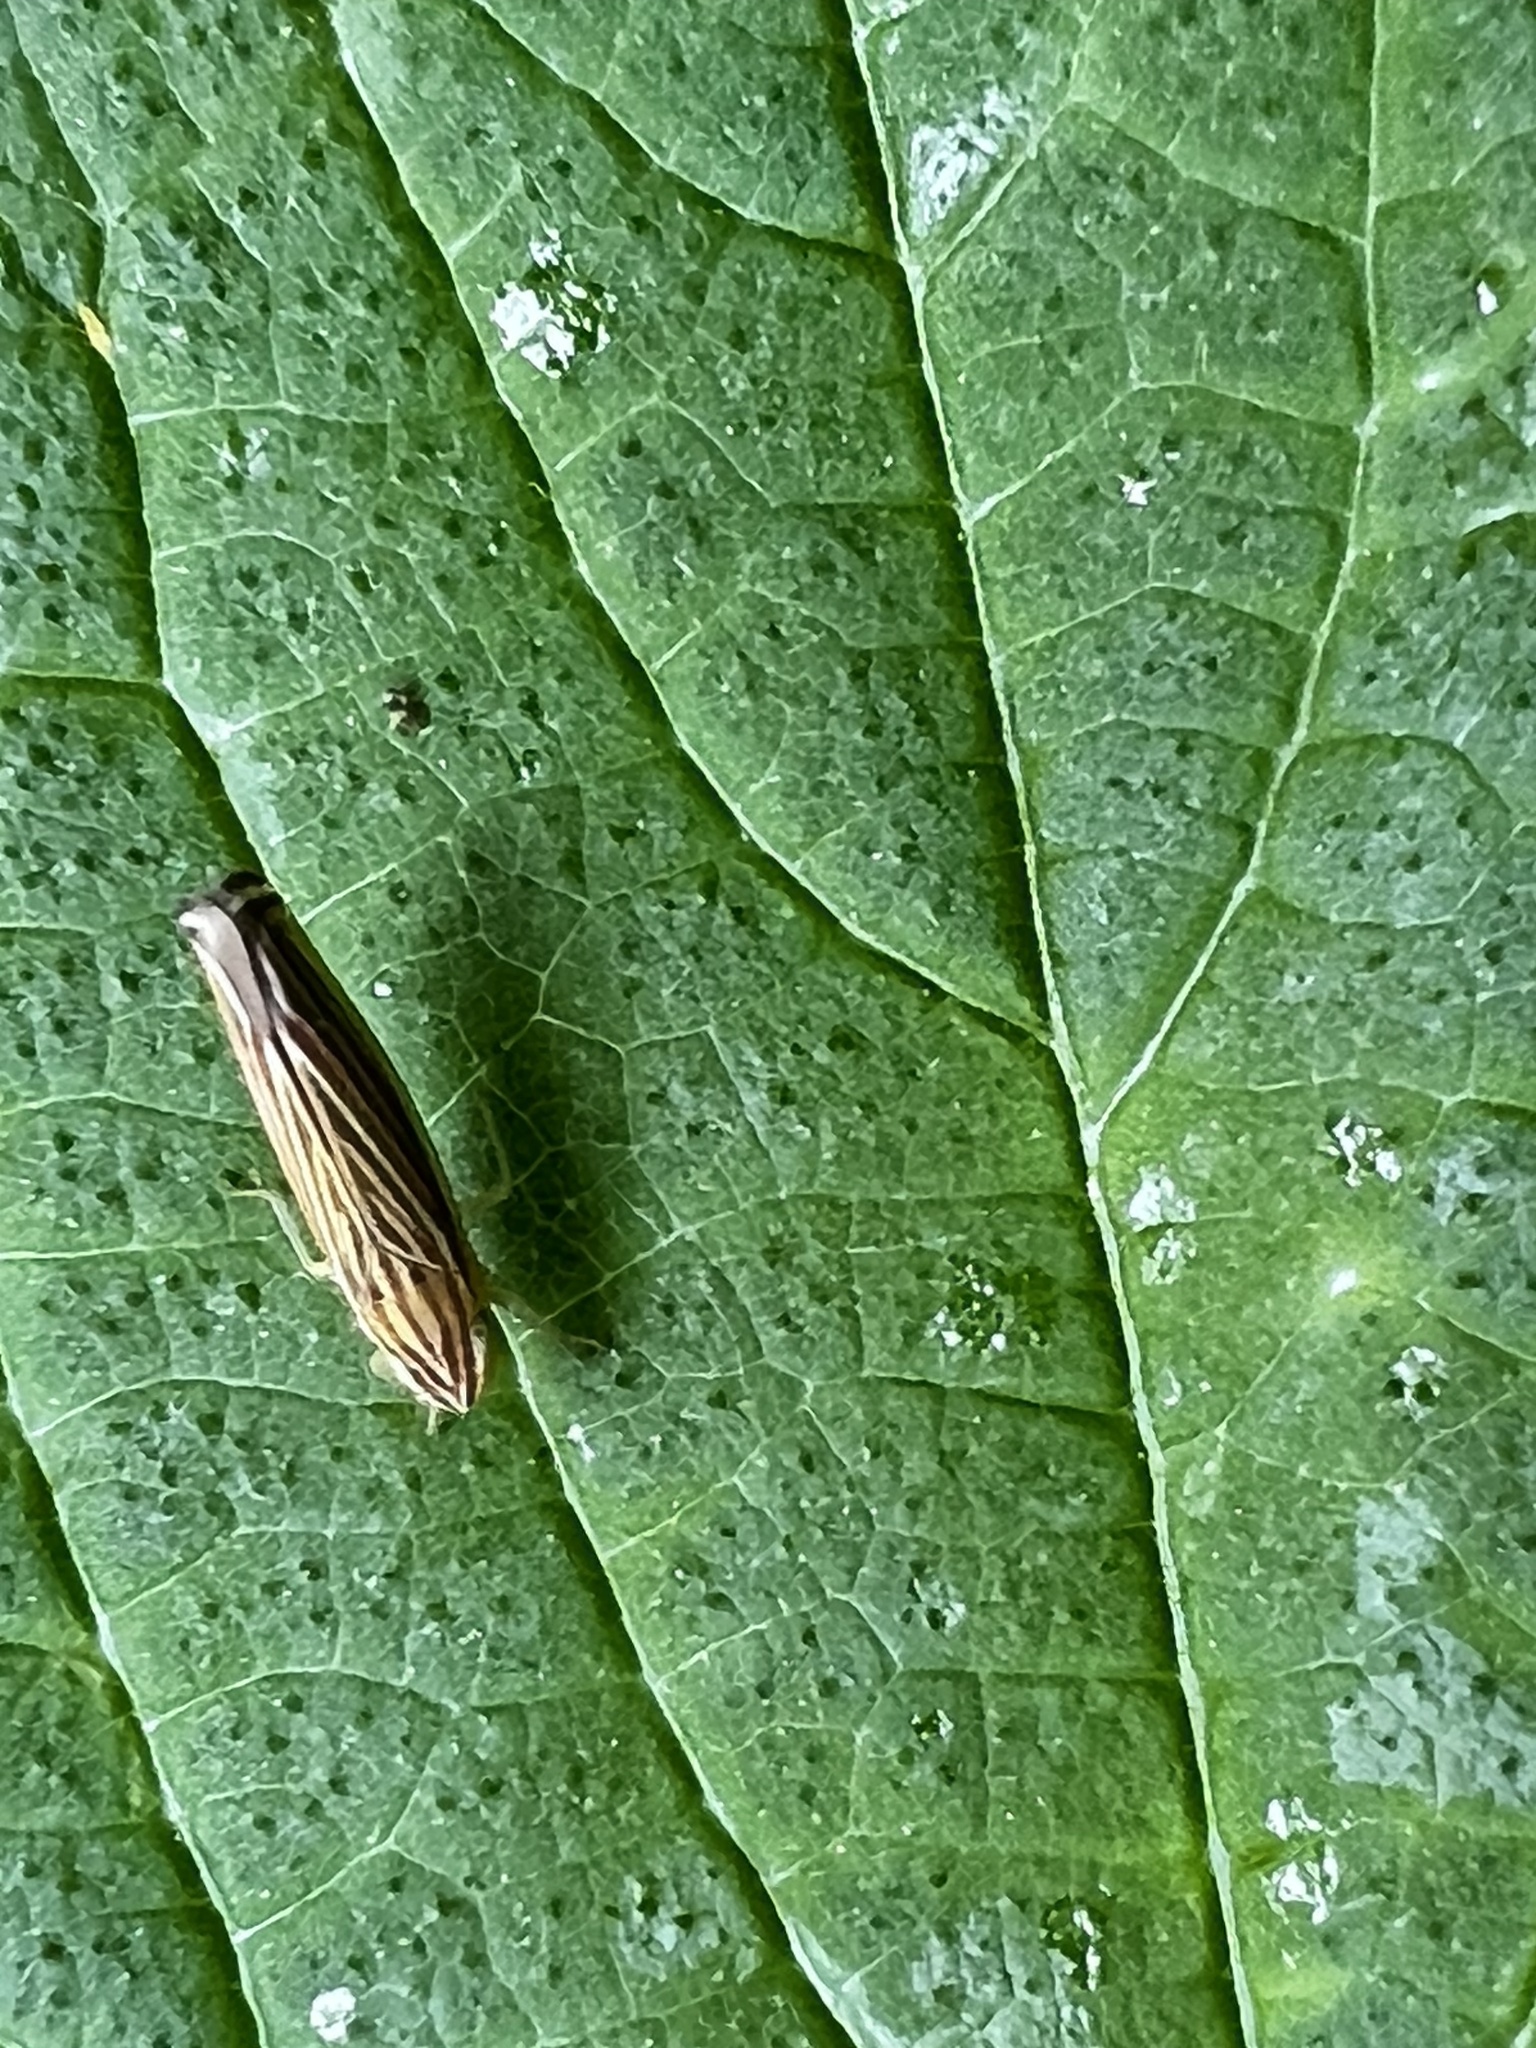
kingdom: Animalia
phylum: Arthropoda
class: Insecta
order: Hemiptera
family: Cicadellidae
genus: Sibovia
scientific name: Sibovia occatoria
